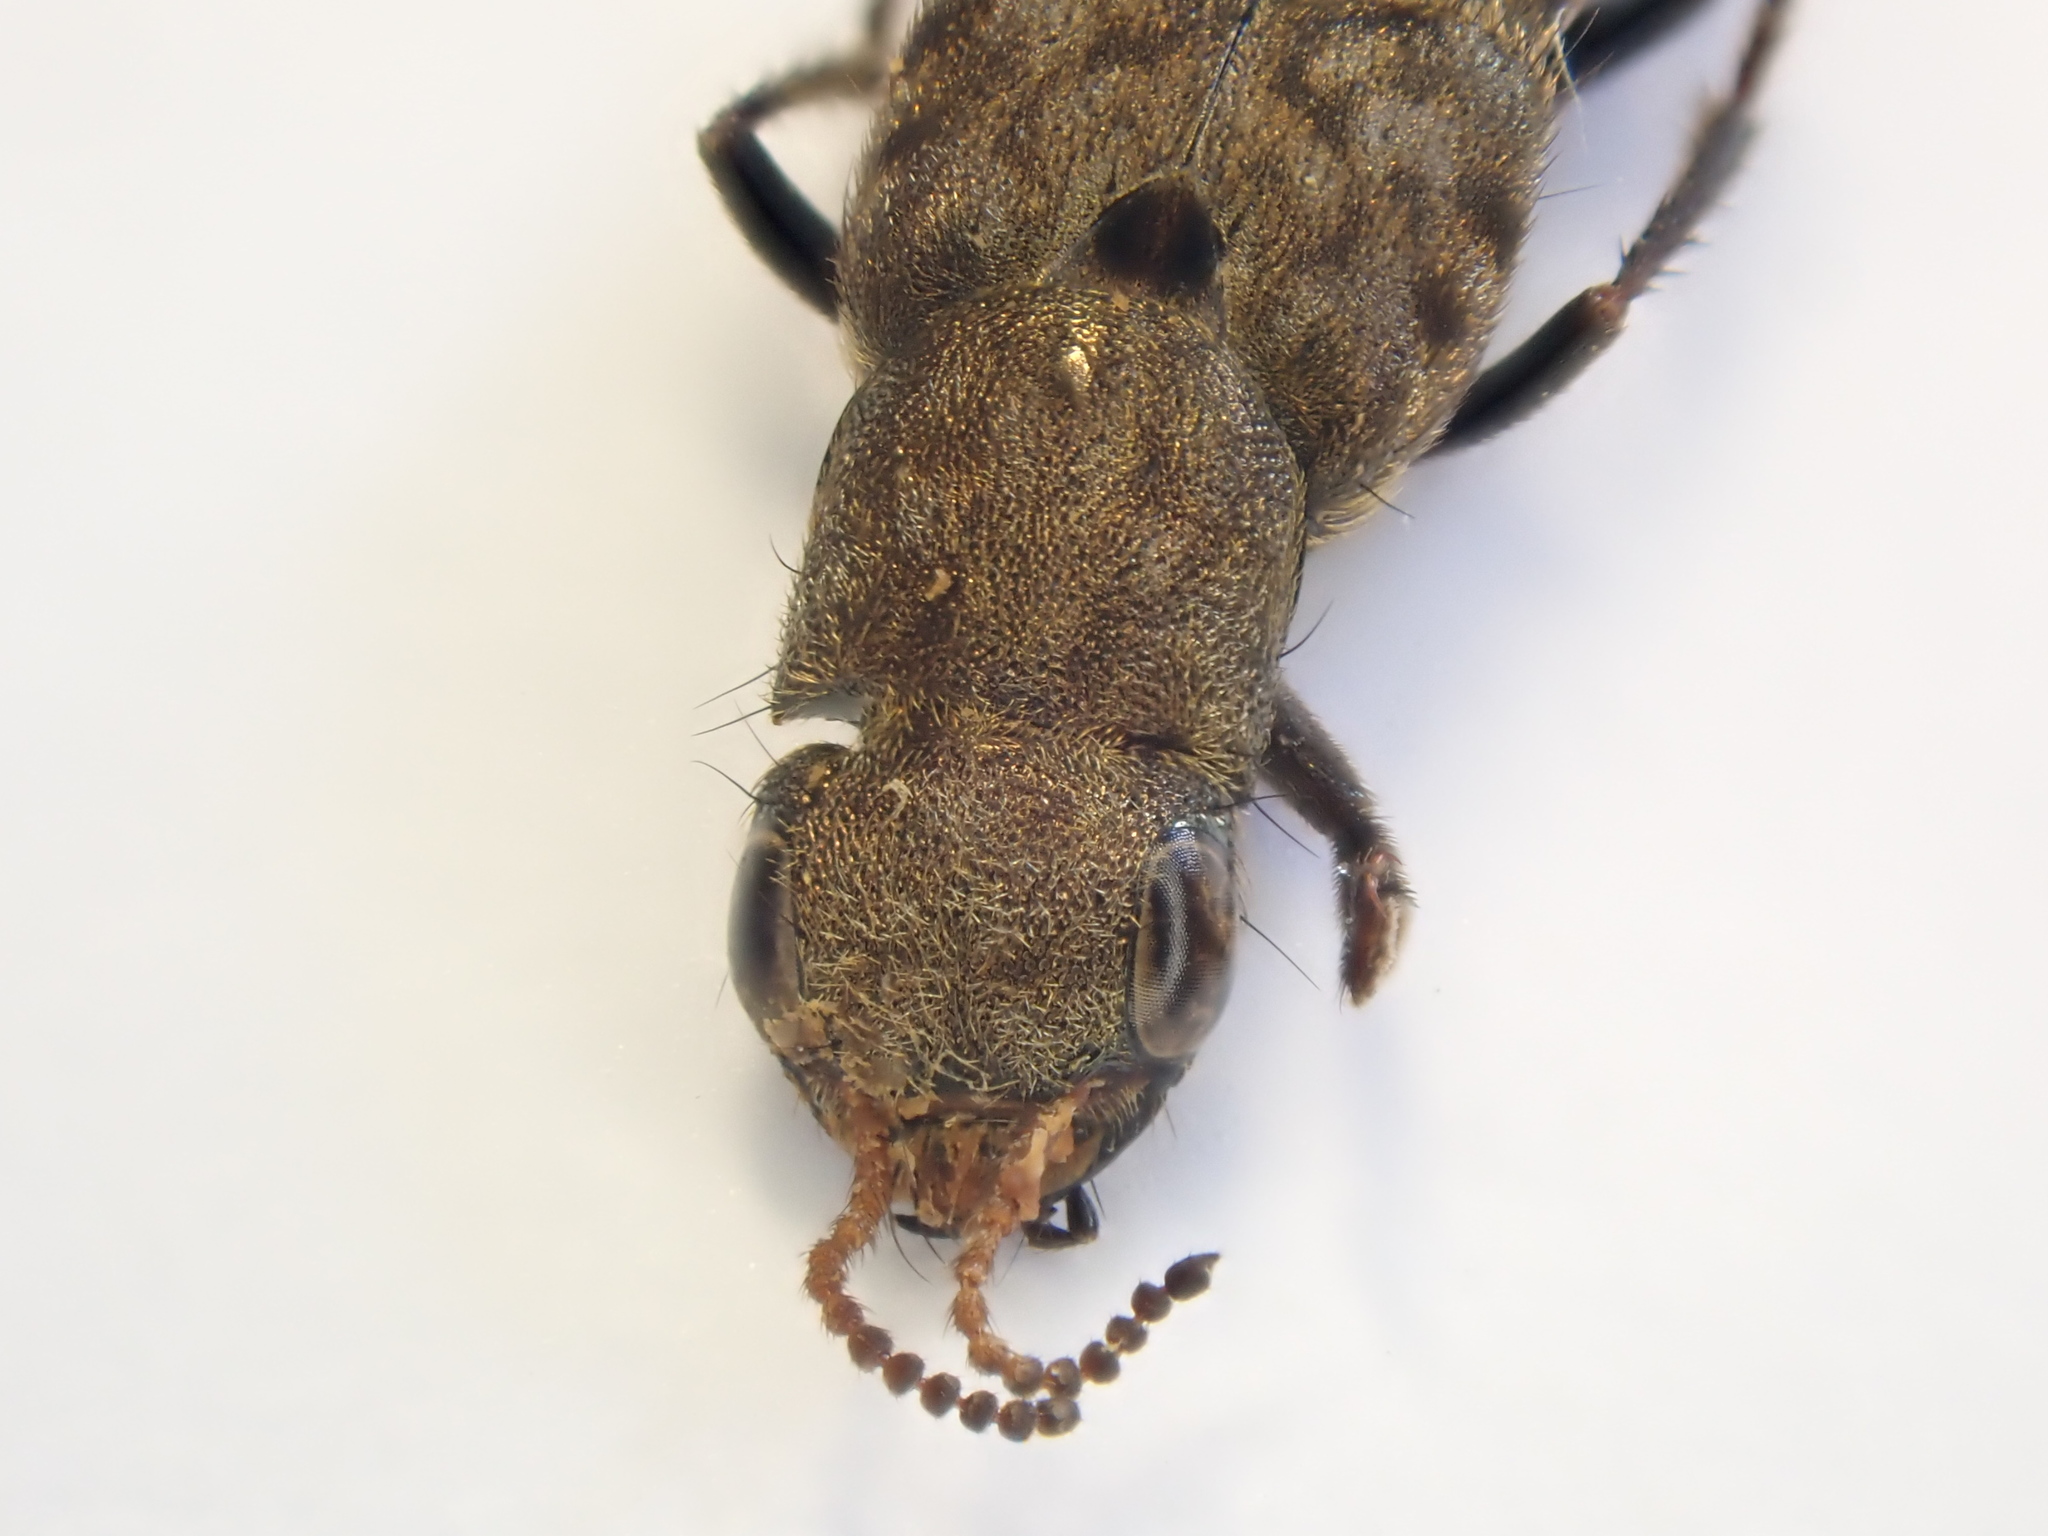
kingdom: Animalia
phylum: Arthropoda
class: Insecta
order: Coleoptera
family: Staphylinidae
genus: Ontholestes
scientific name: Ontholestes murinus
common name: Staph beetle
